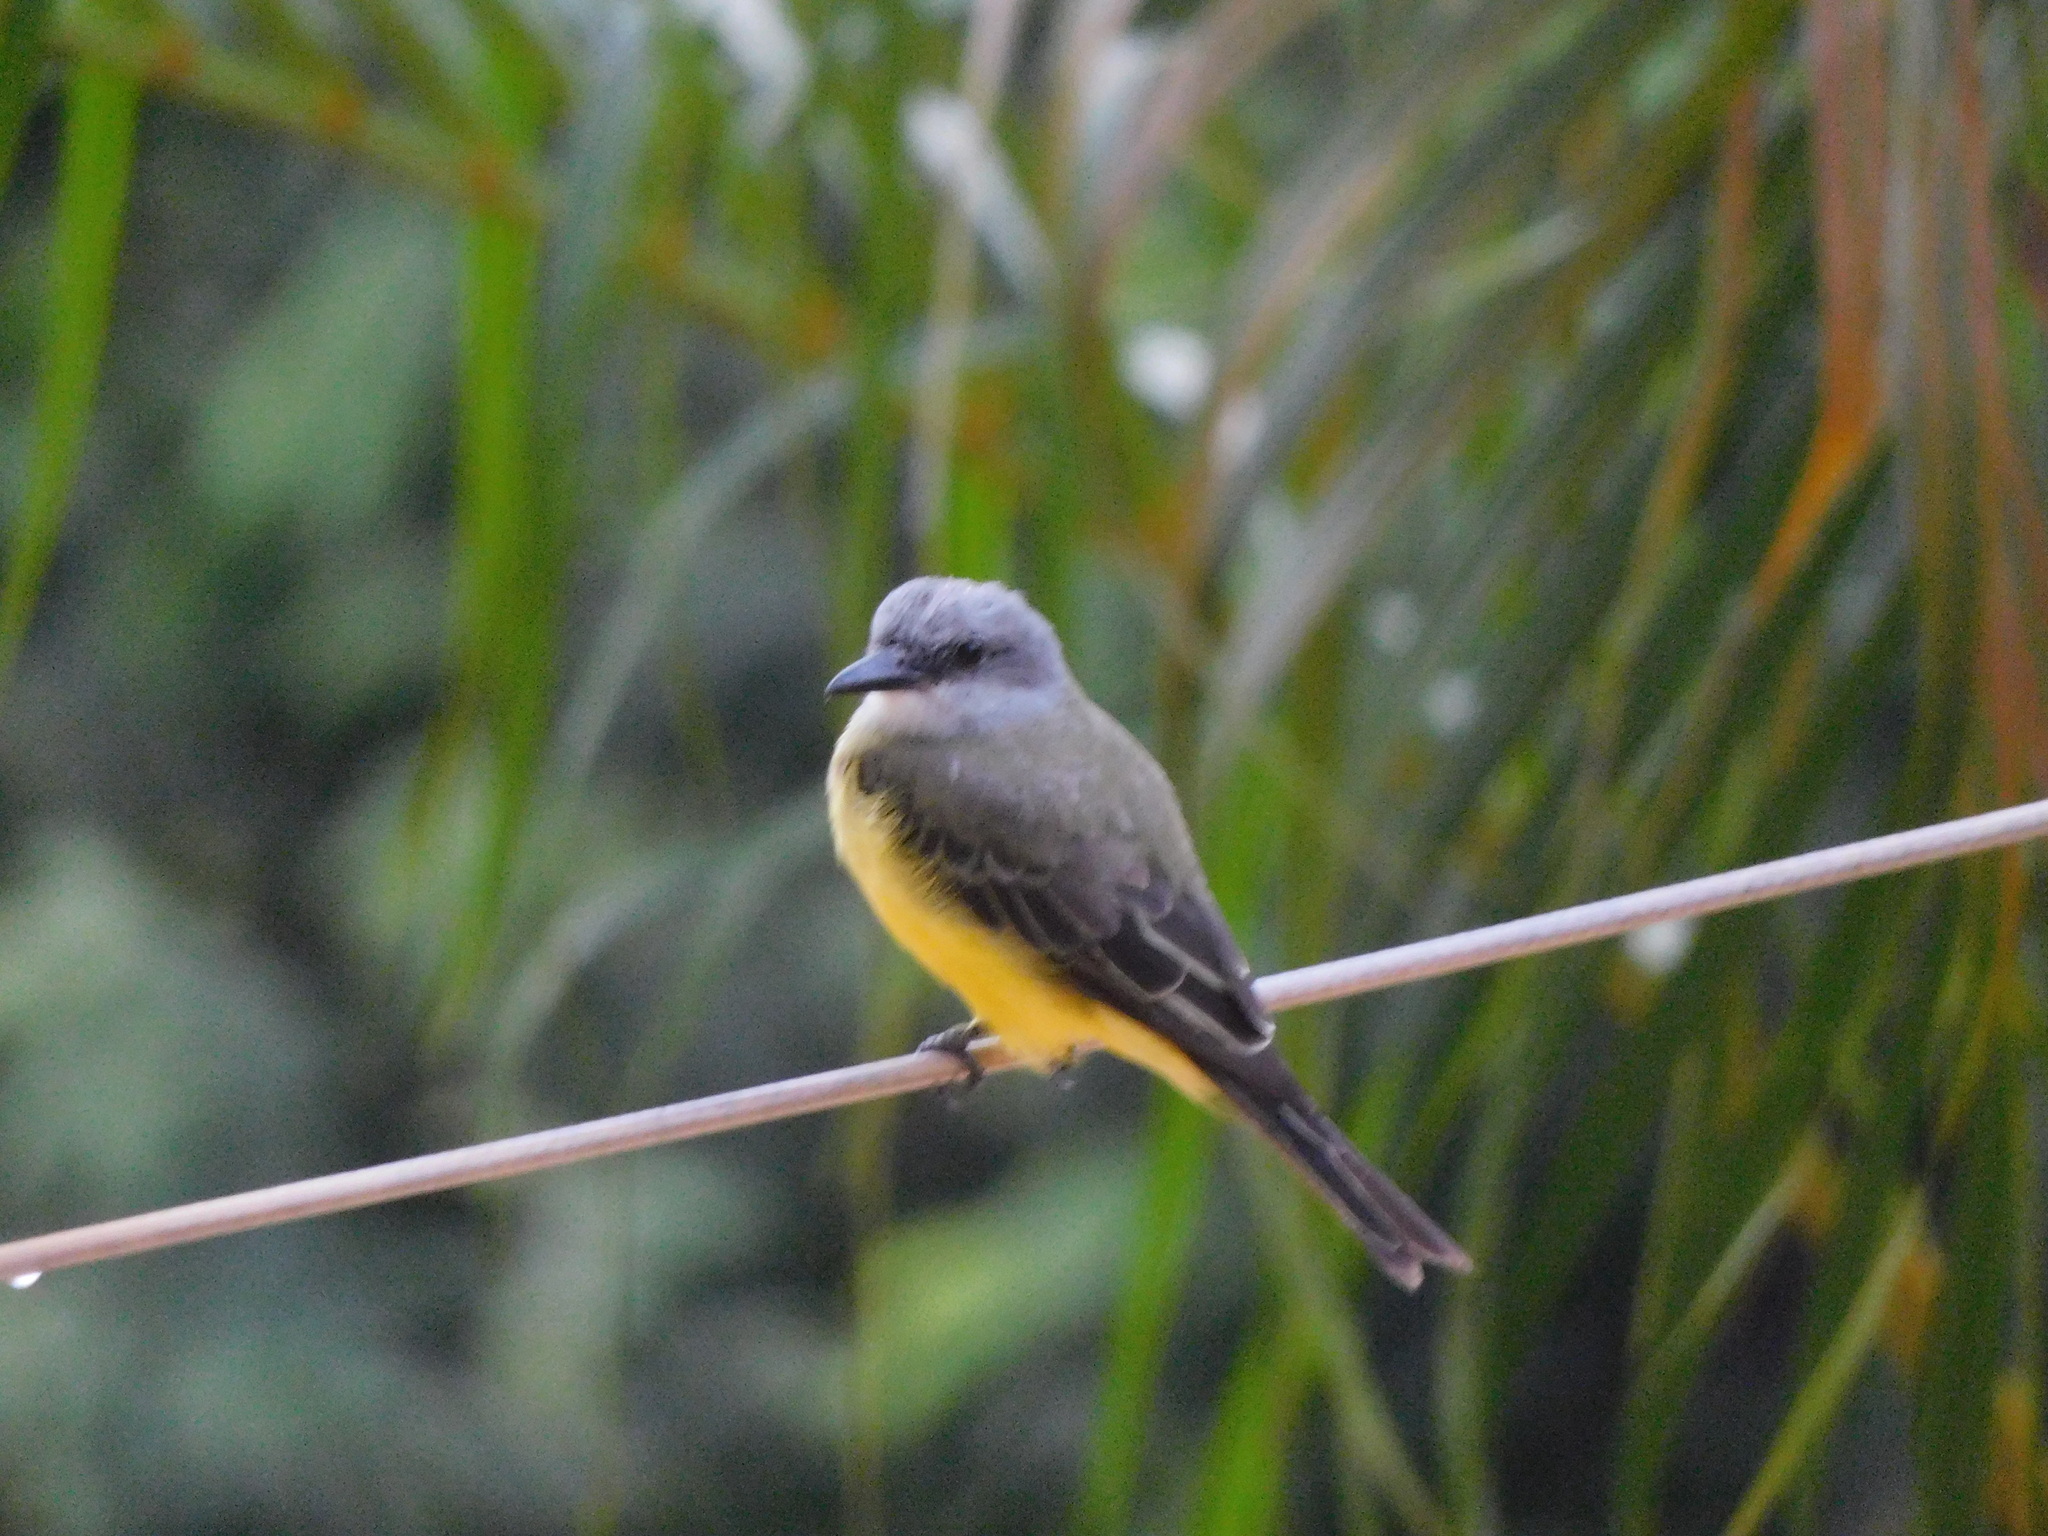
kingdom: Animalia
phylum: Chordata
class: Aves
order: Passeriformes
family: Tyrannidae
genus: Tyrannus
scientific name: Tyrannus melancholicus
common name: Tropical kingbird
